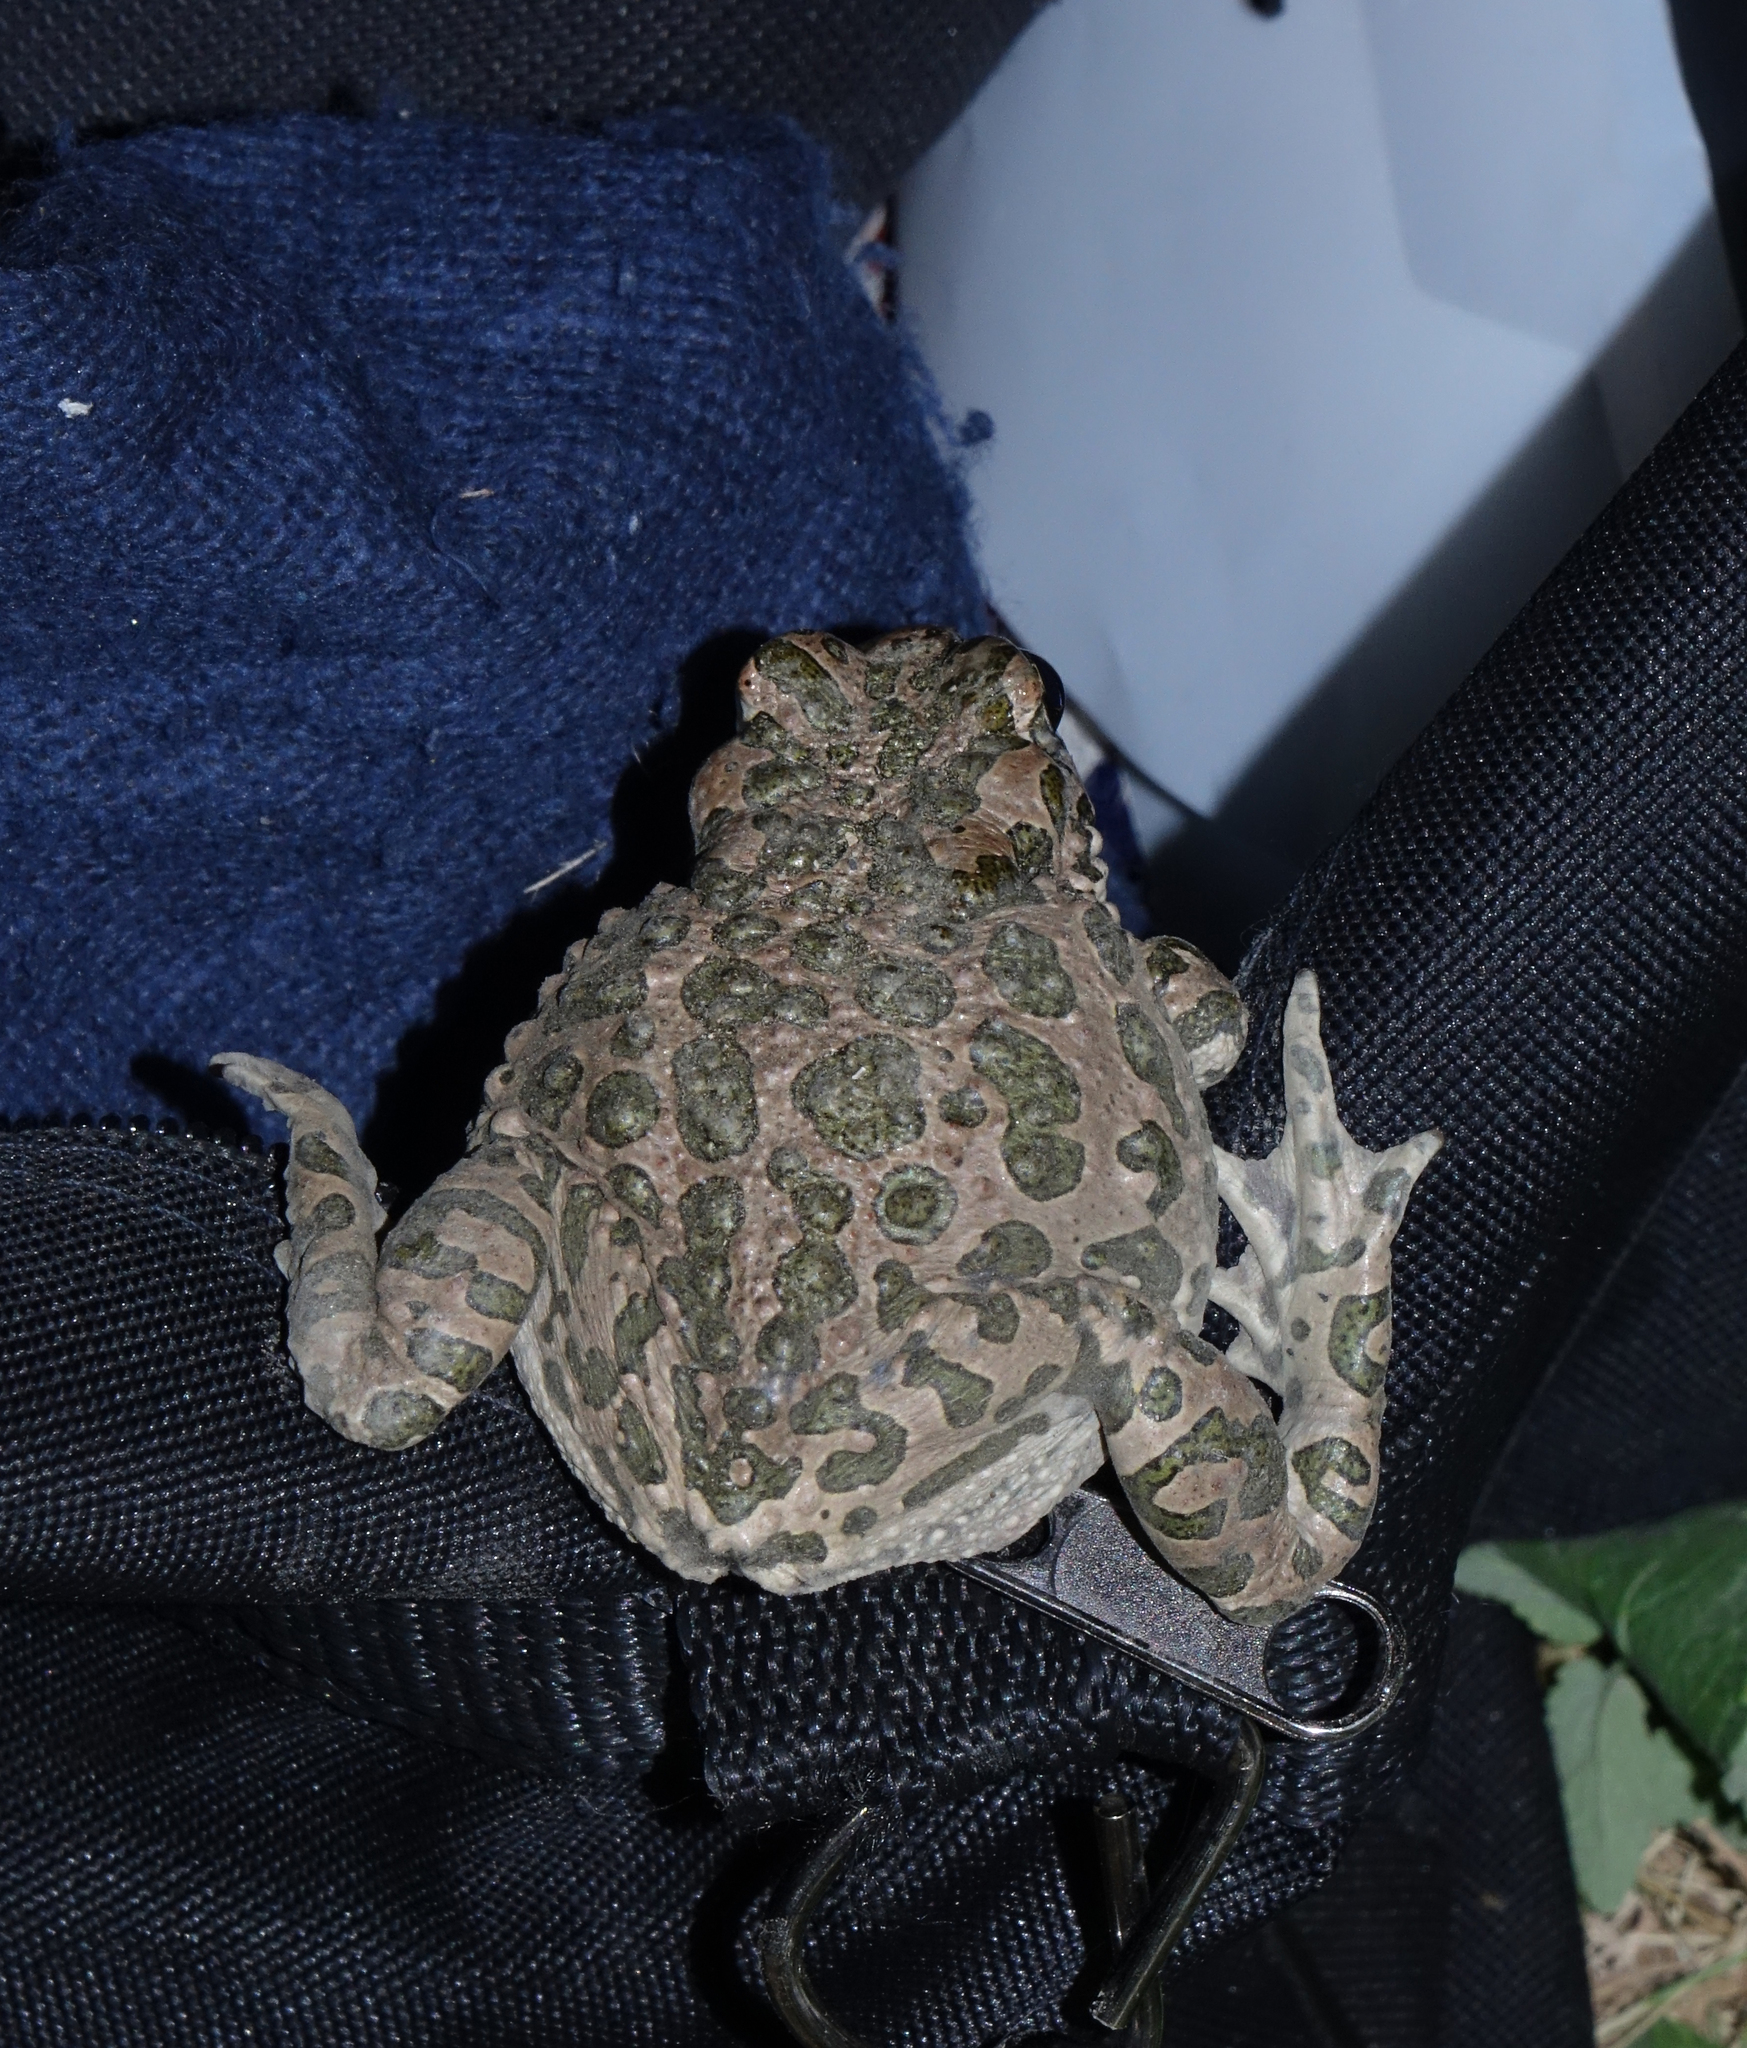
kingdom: Animalia
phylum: Chordata
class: Amphibia
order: Anura
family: Bufonidae
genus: Bufotes
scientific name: Bufotes viridis
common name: European green toad
